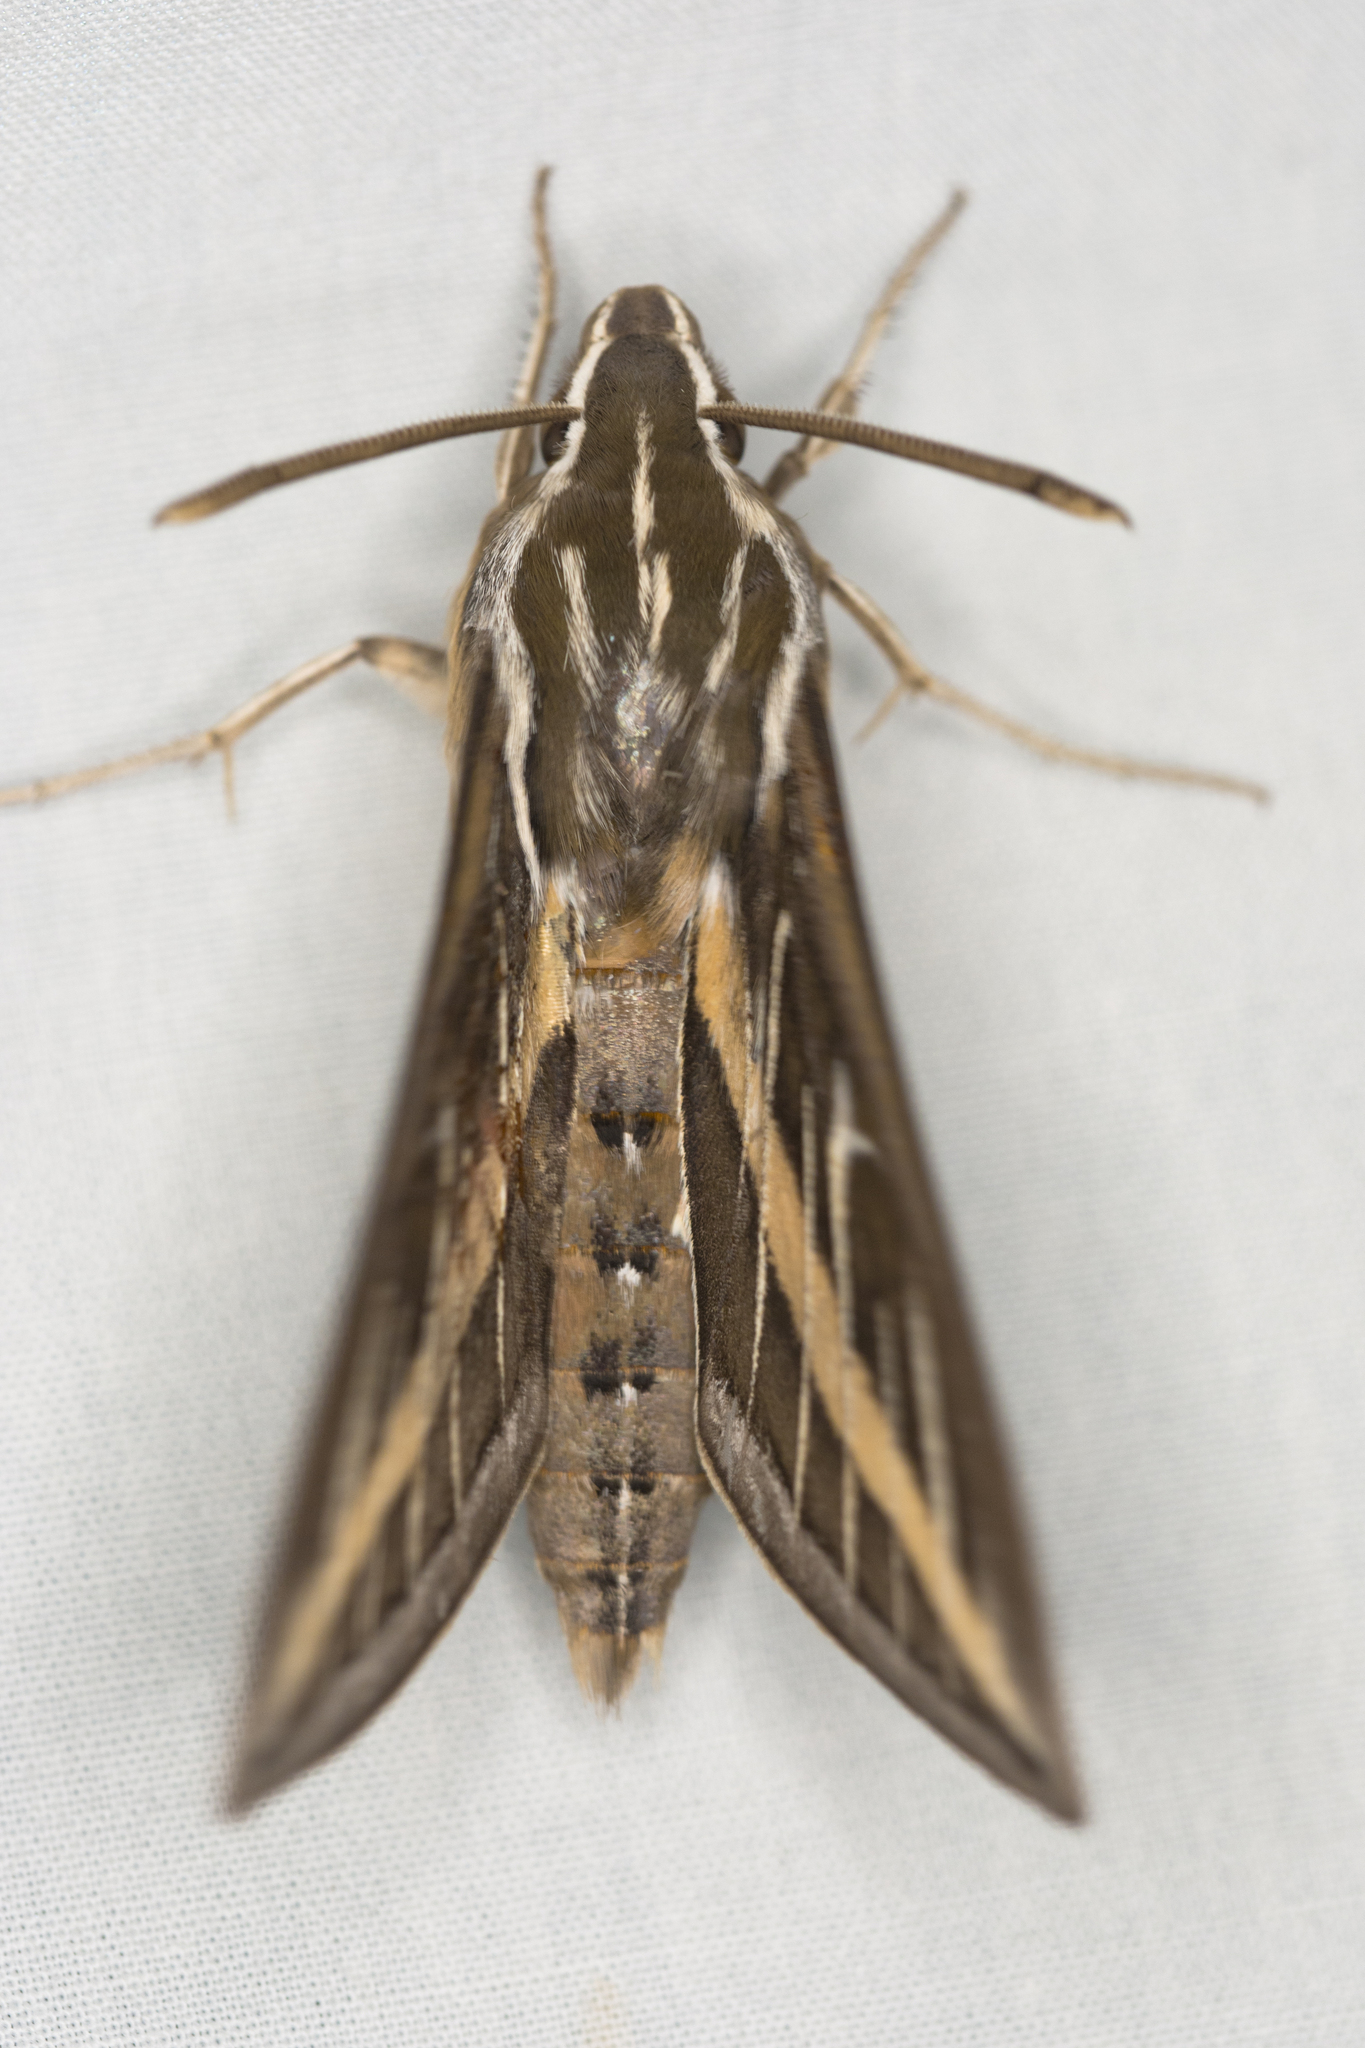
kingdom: Animalia
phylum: Arthropoda
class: Insecta
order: Lepidoptera
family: Sphingidae
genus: Hyles
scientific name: Hyles lineata
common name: White-lined sphinx
